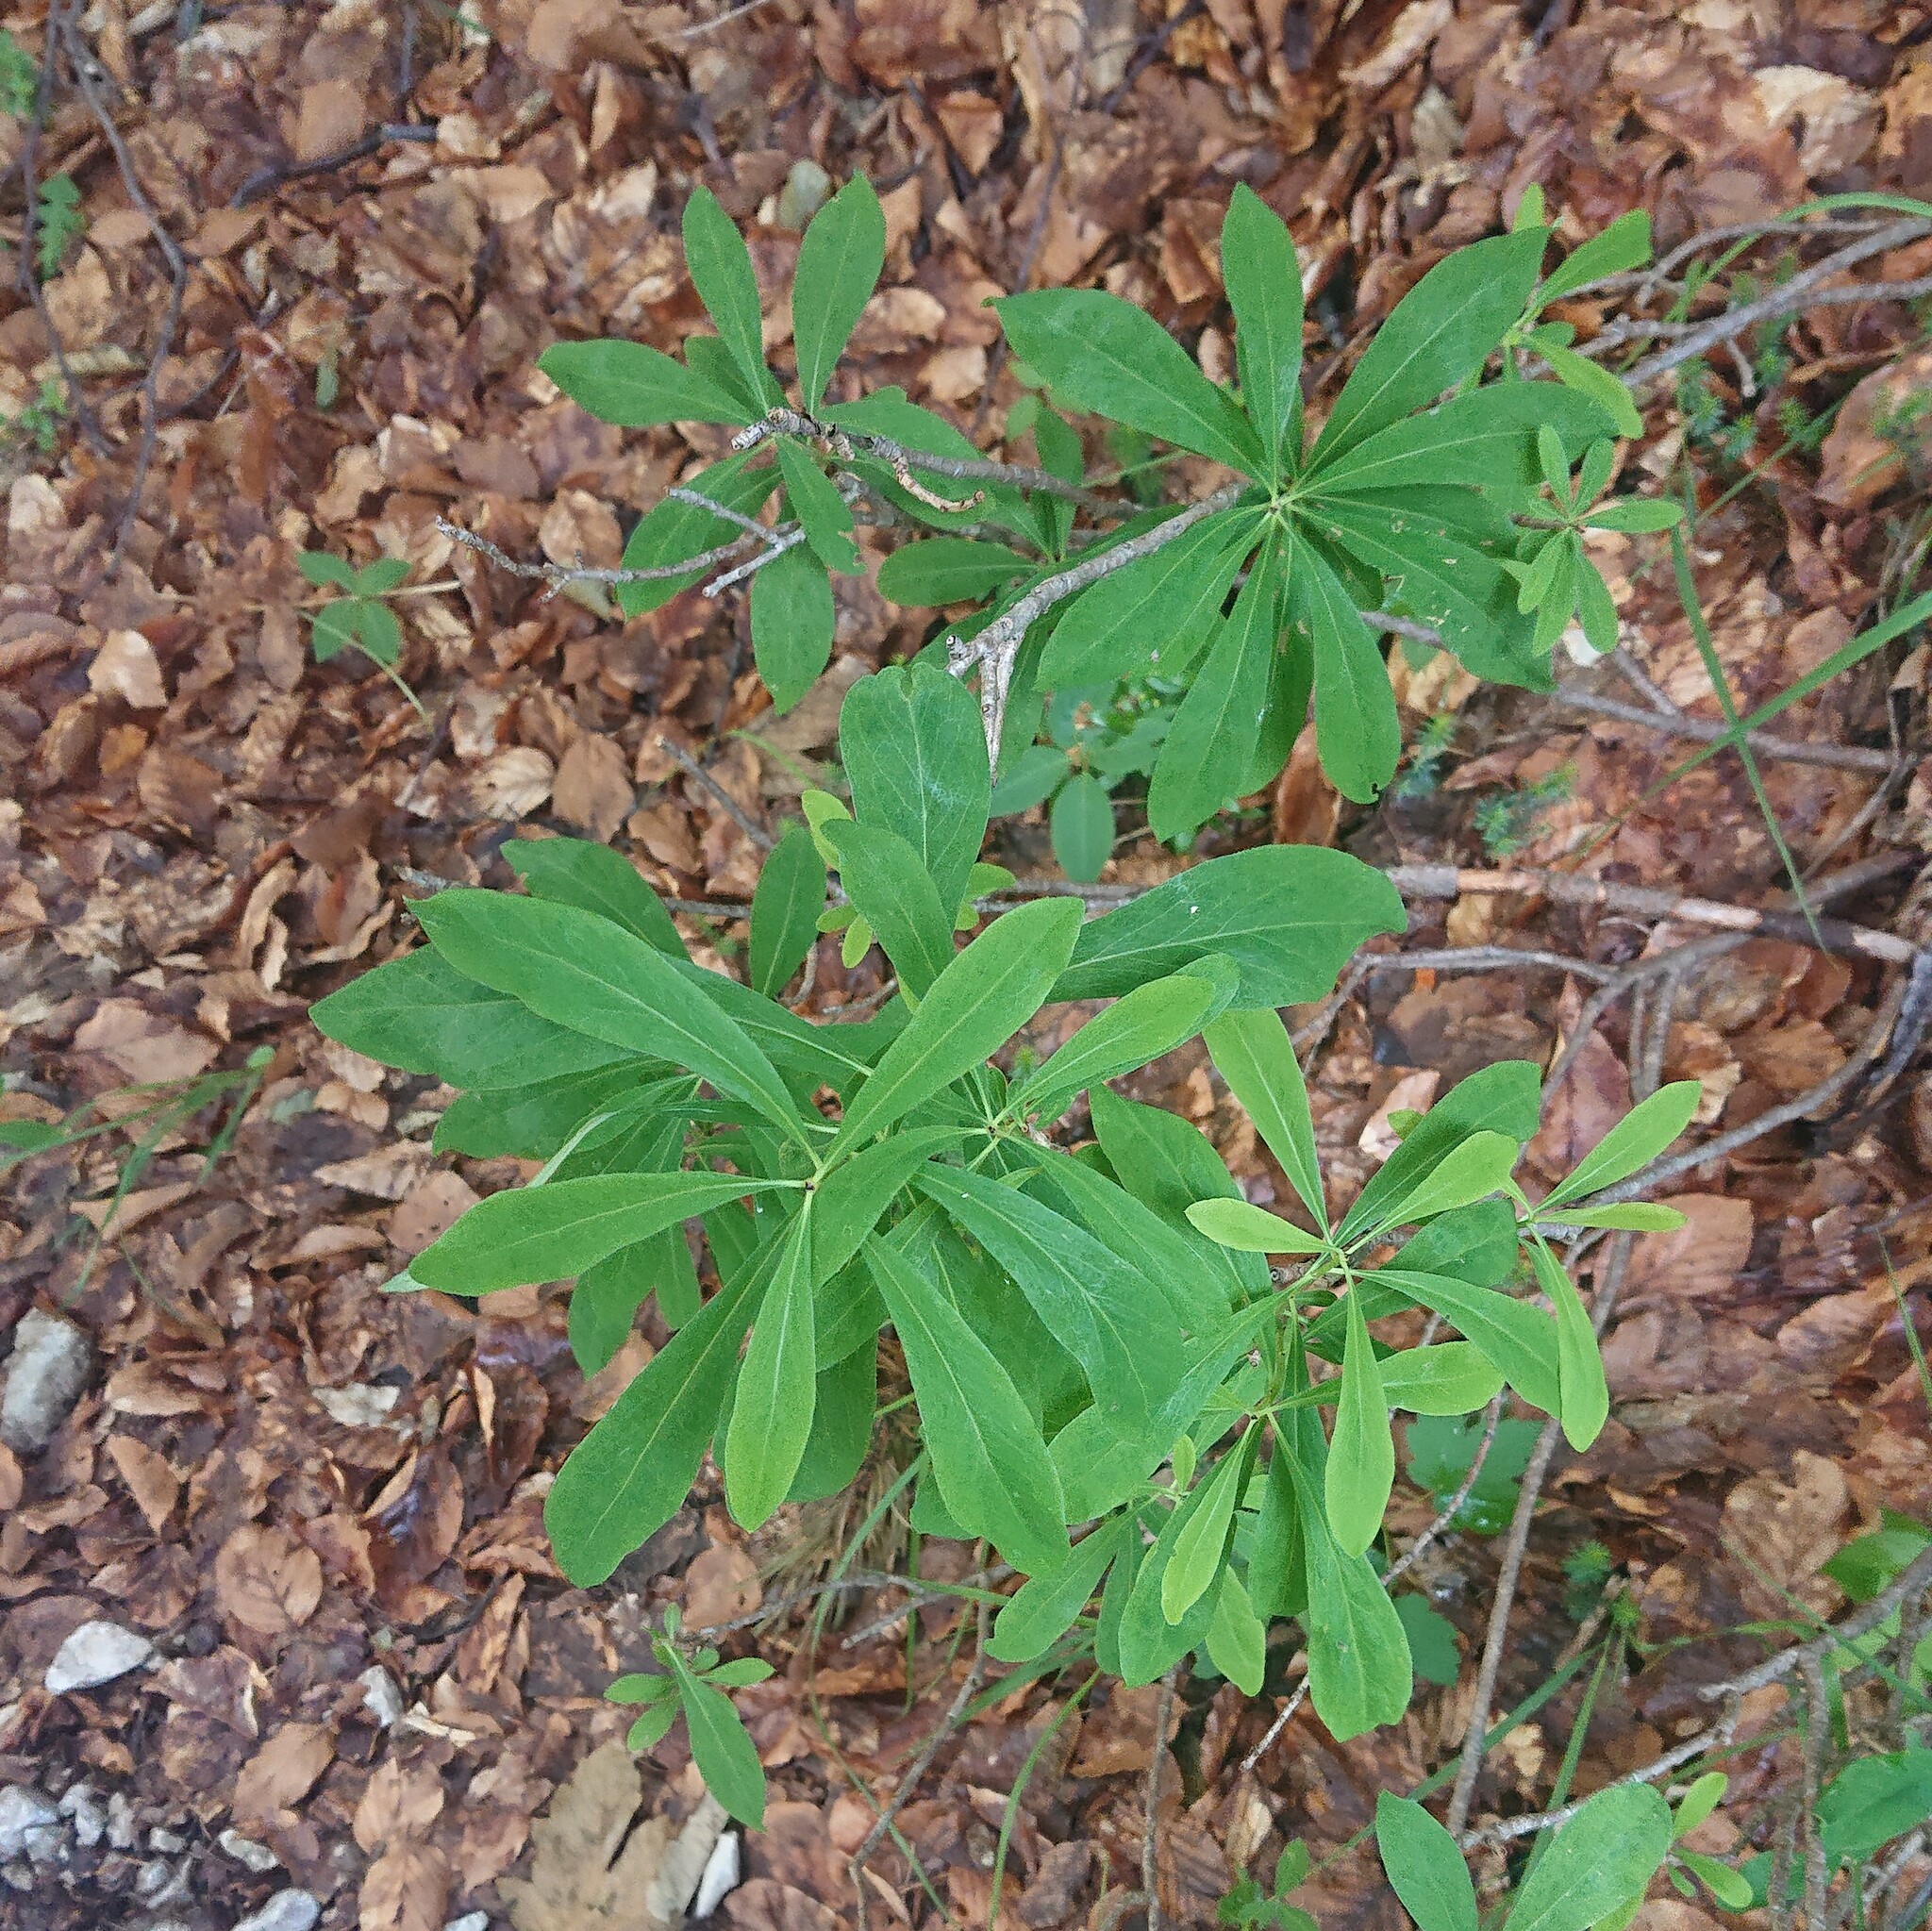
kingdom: Plantae
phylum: Tracheophyta
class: Magnoliopsida
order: Malvales
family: Thymelaeaceae
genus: Daphne
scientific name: Daphne mezereum
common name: Mezereon
